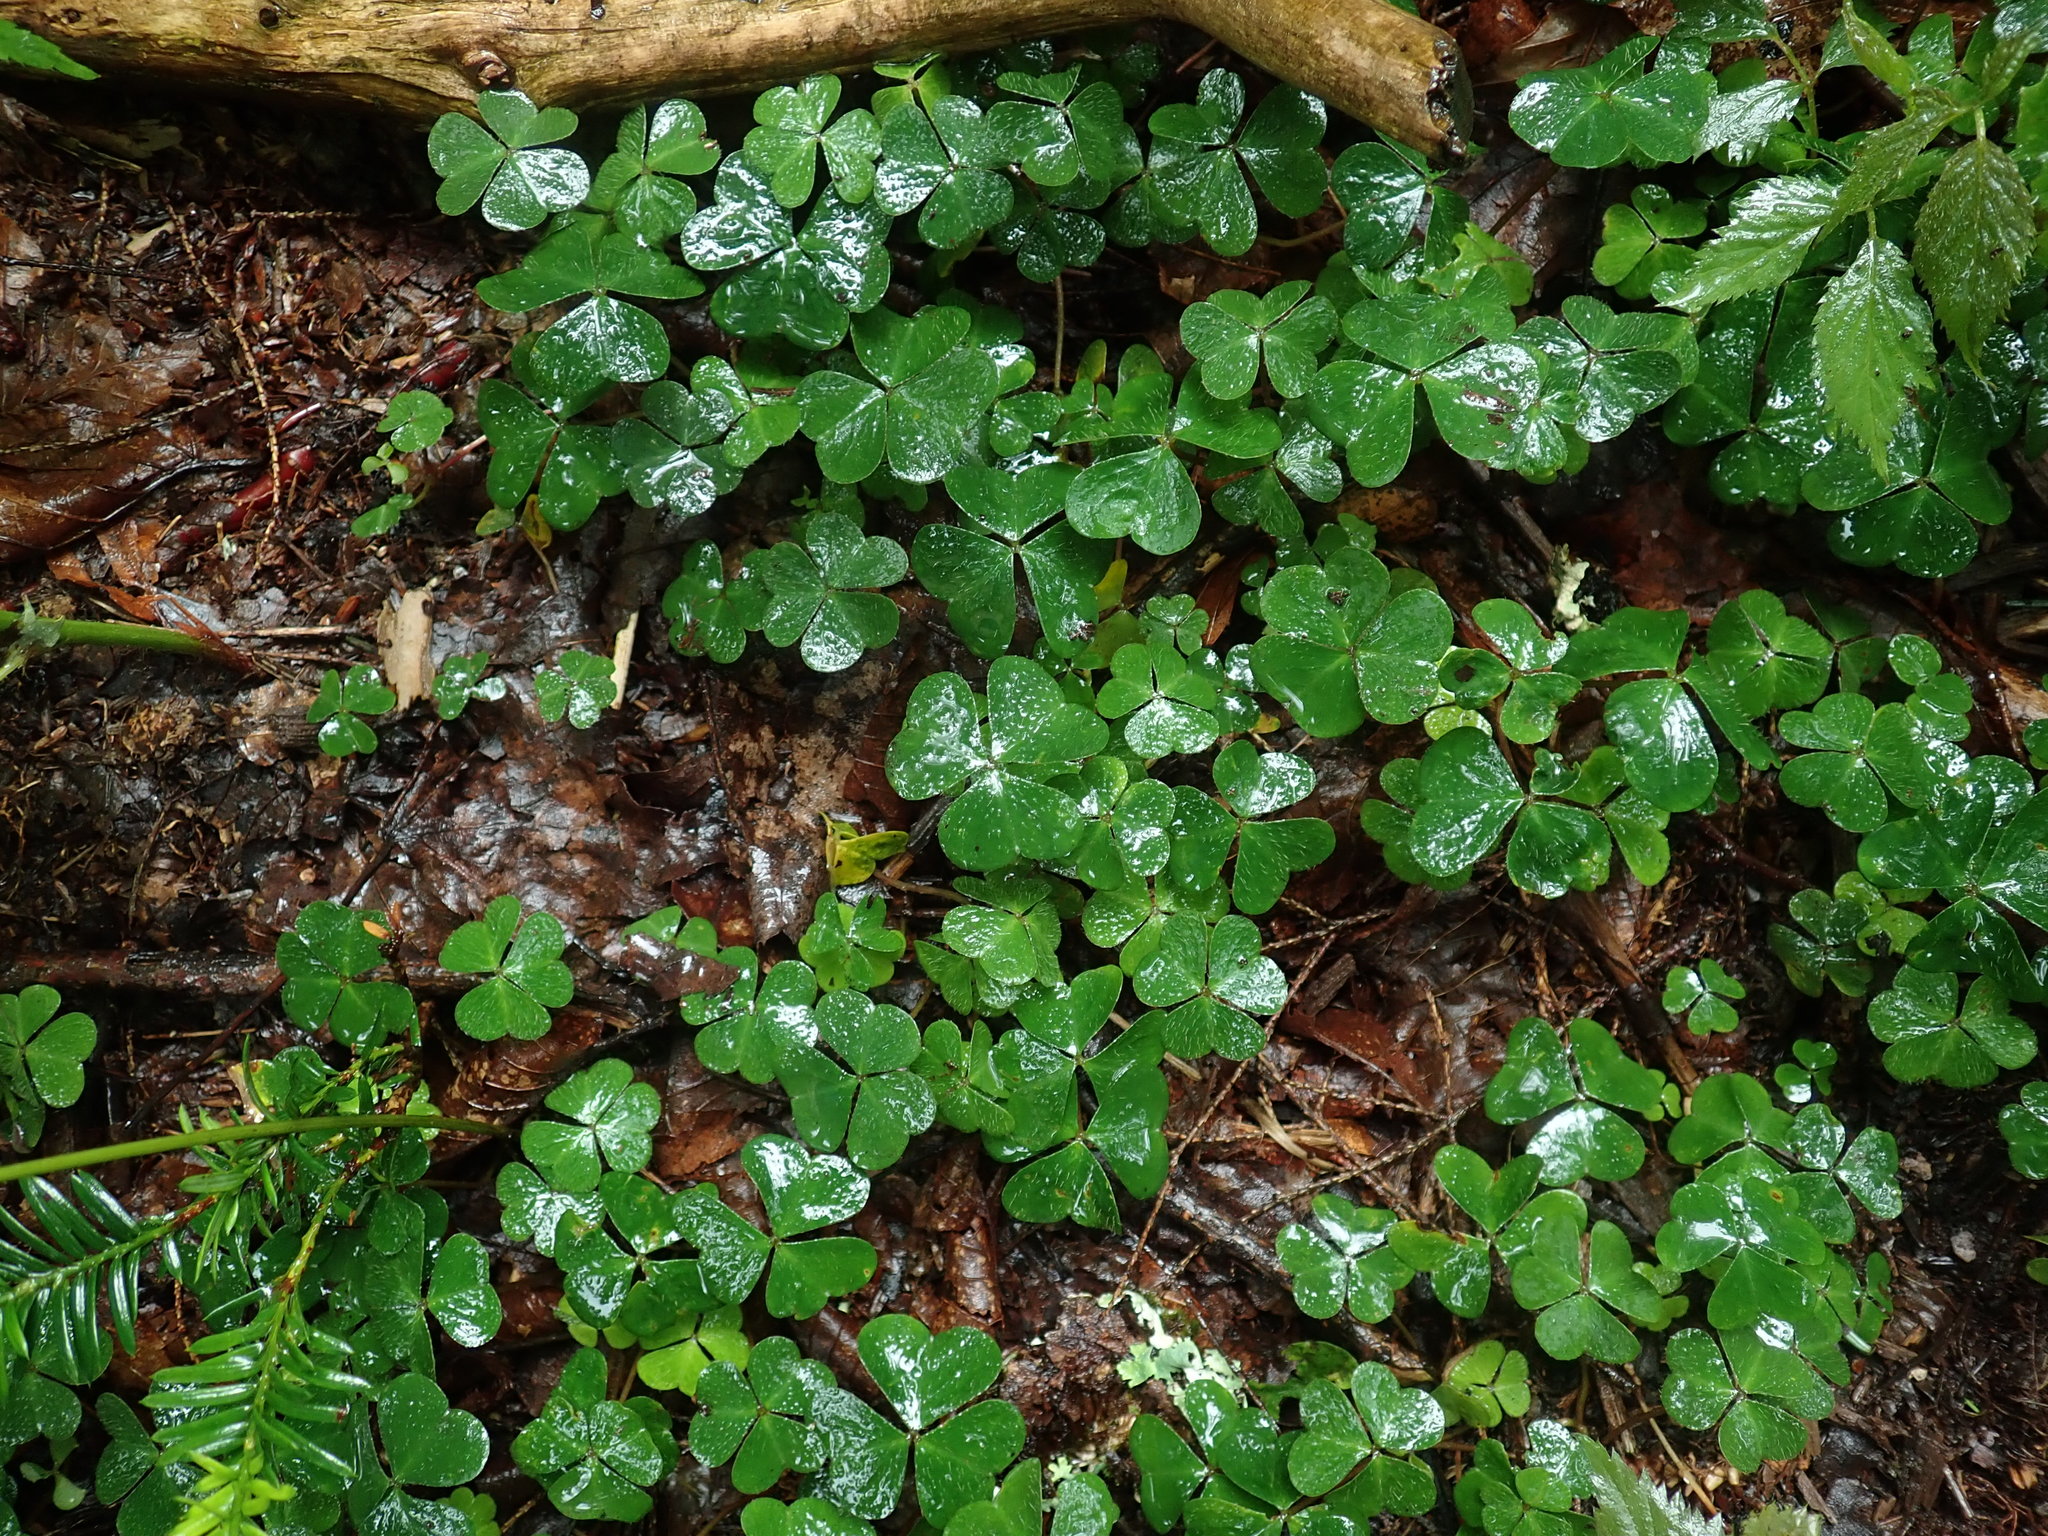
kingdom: Plantae
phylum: Tracheophyta
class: Magnoliopsida
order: Oxalidales
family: Oxalidaceae
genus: Oxalis
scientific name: Oxalis montana
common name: American wood-sorrel
